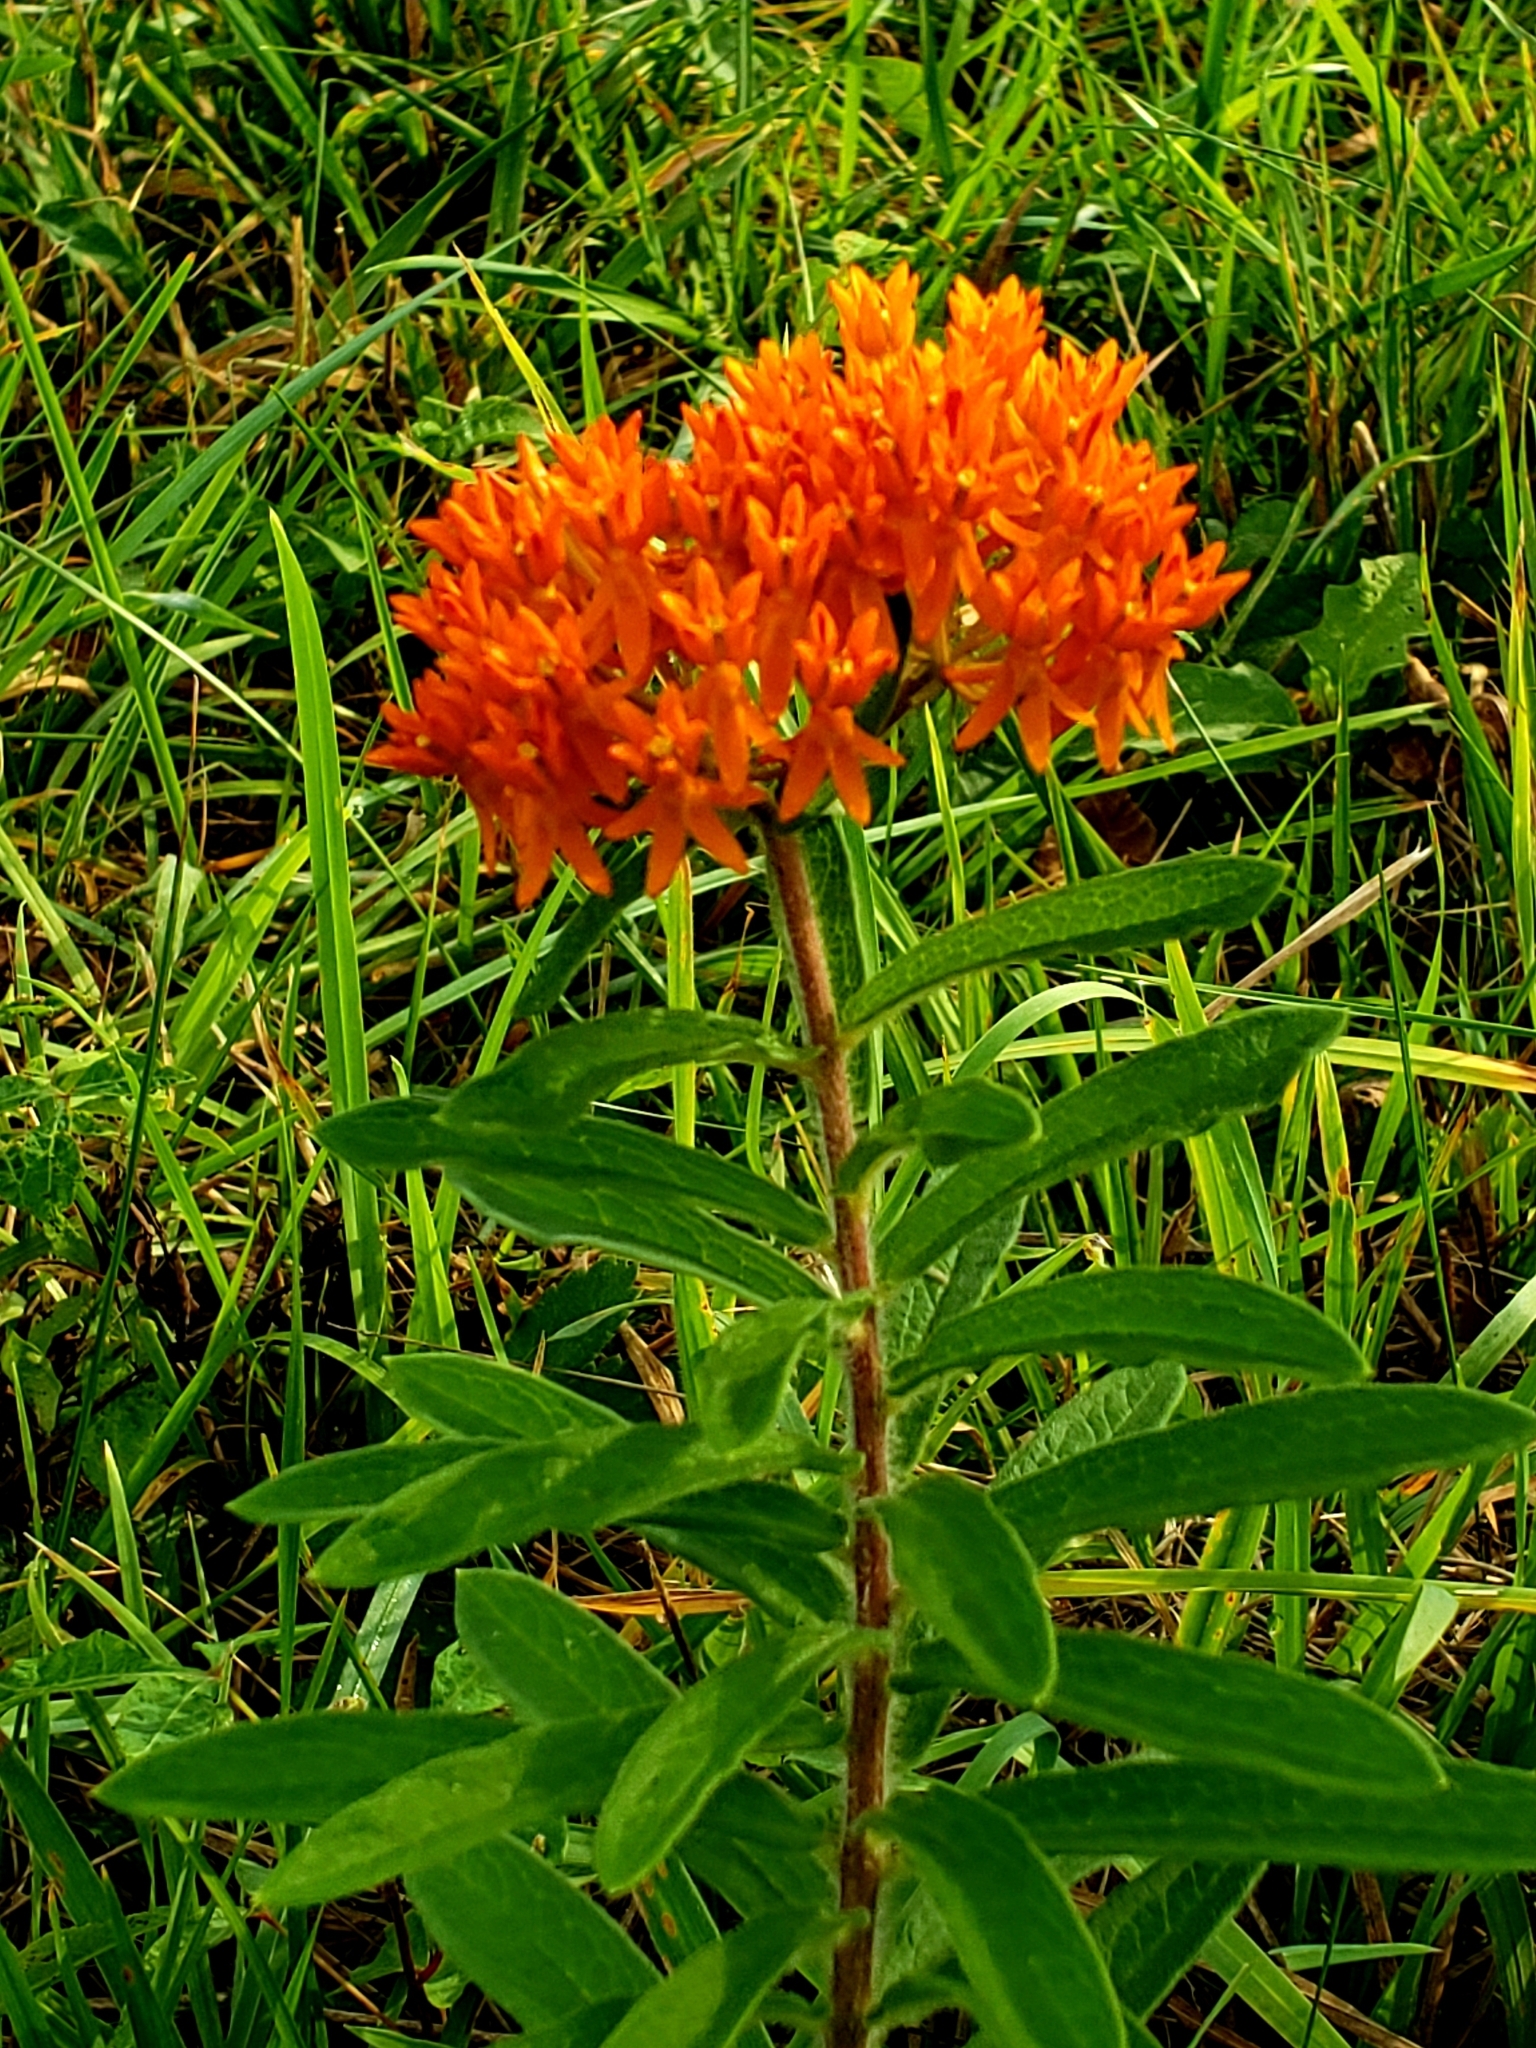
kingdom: Plantae
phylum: Tracheophyta
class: Magnoliopsida
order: Gentianales
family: Apocynaceae
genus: Asclepias
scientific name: Asclepias tuberosa
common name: Butterfly milkweed
